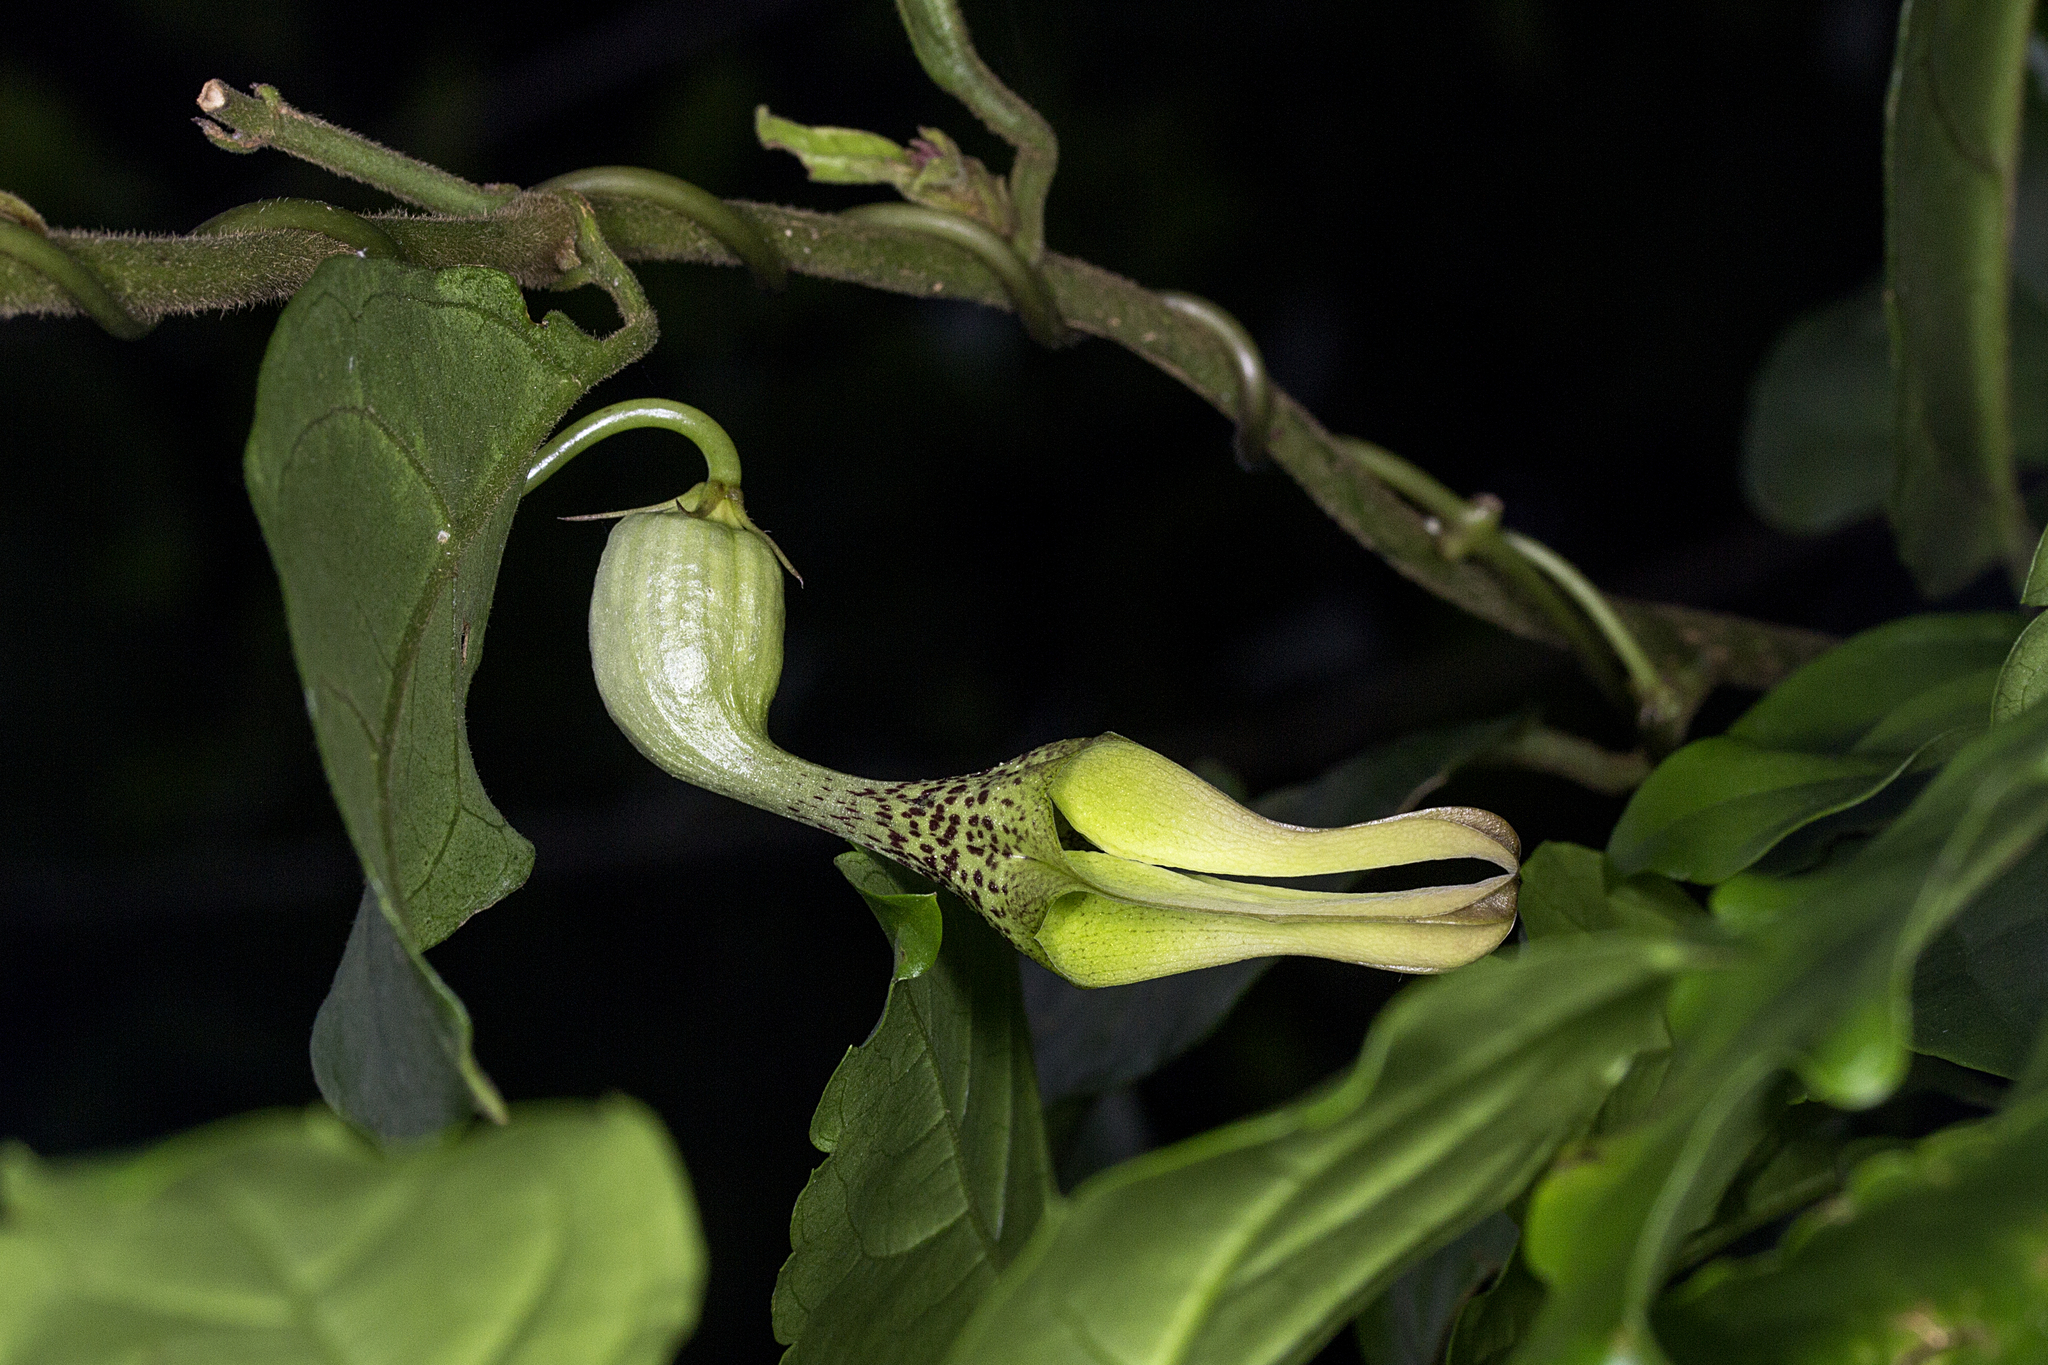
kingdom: Plantae
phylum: Tracheophyta
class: Magnoliopsida
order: Gentianales
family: Apocynaceae
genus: Ceropegia
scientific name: Ceropegia decaisneana
